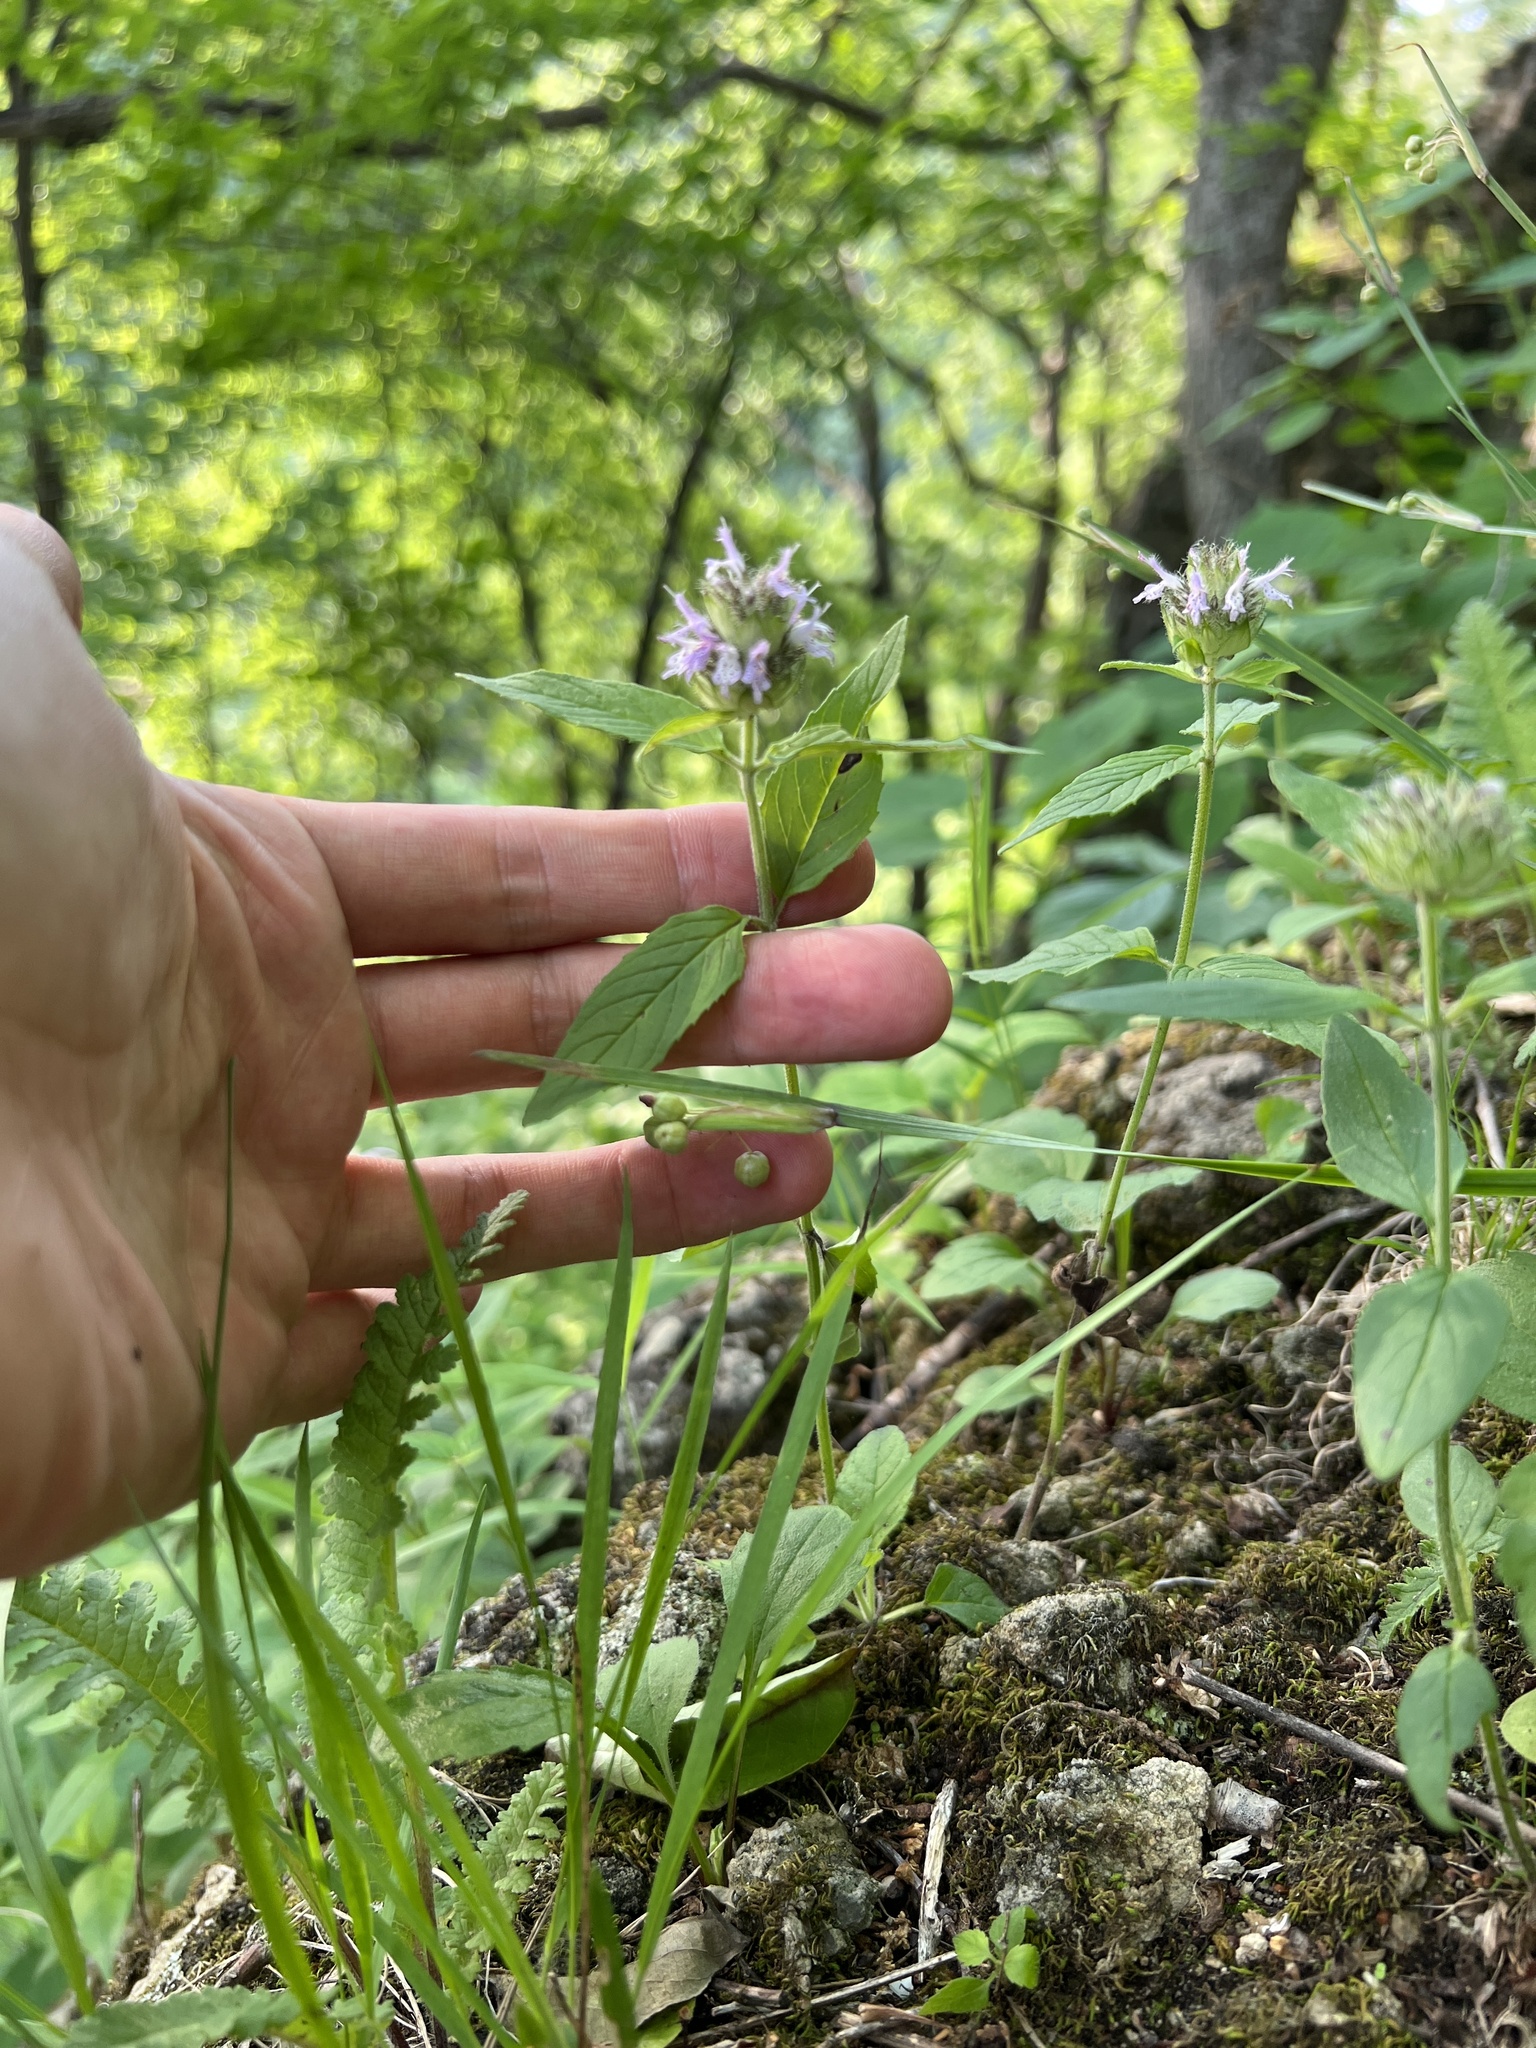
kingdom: Plantae
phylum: Tracheophyta
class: Magnoliopsida
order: Lamiales
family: Lamiaceae
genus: Blephilia
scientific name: Blephilia ciliata
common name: Downy blephilia
